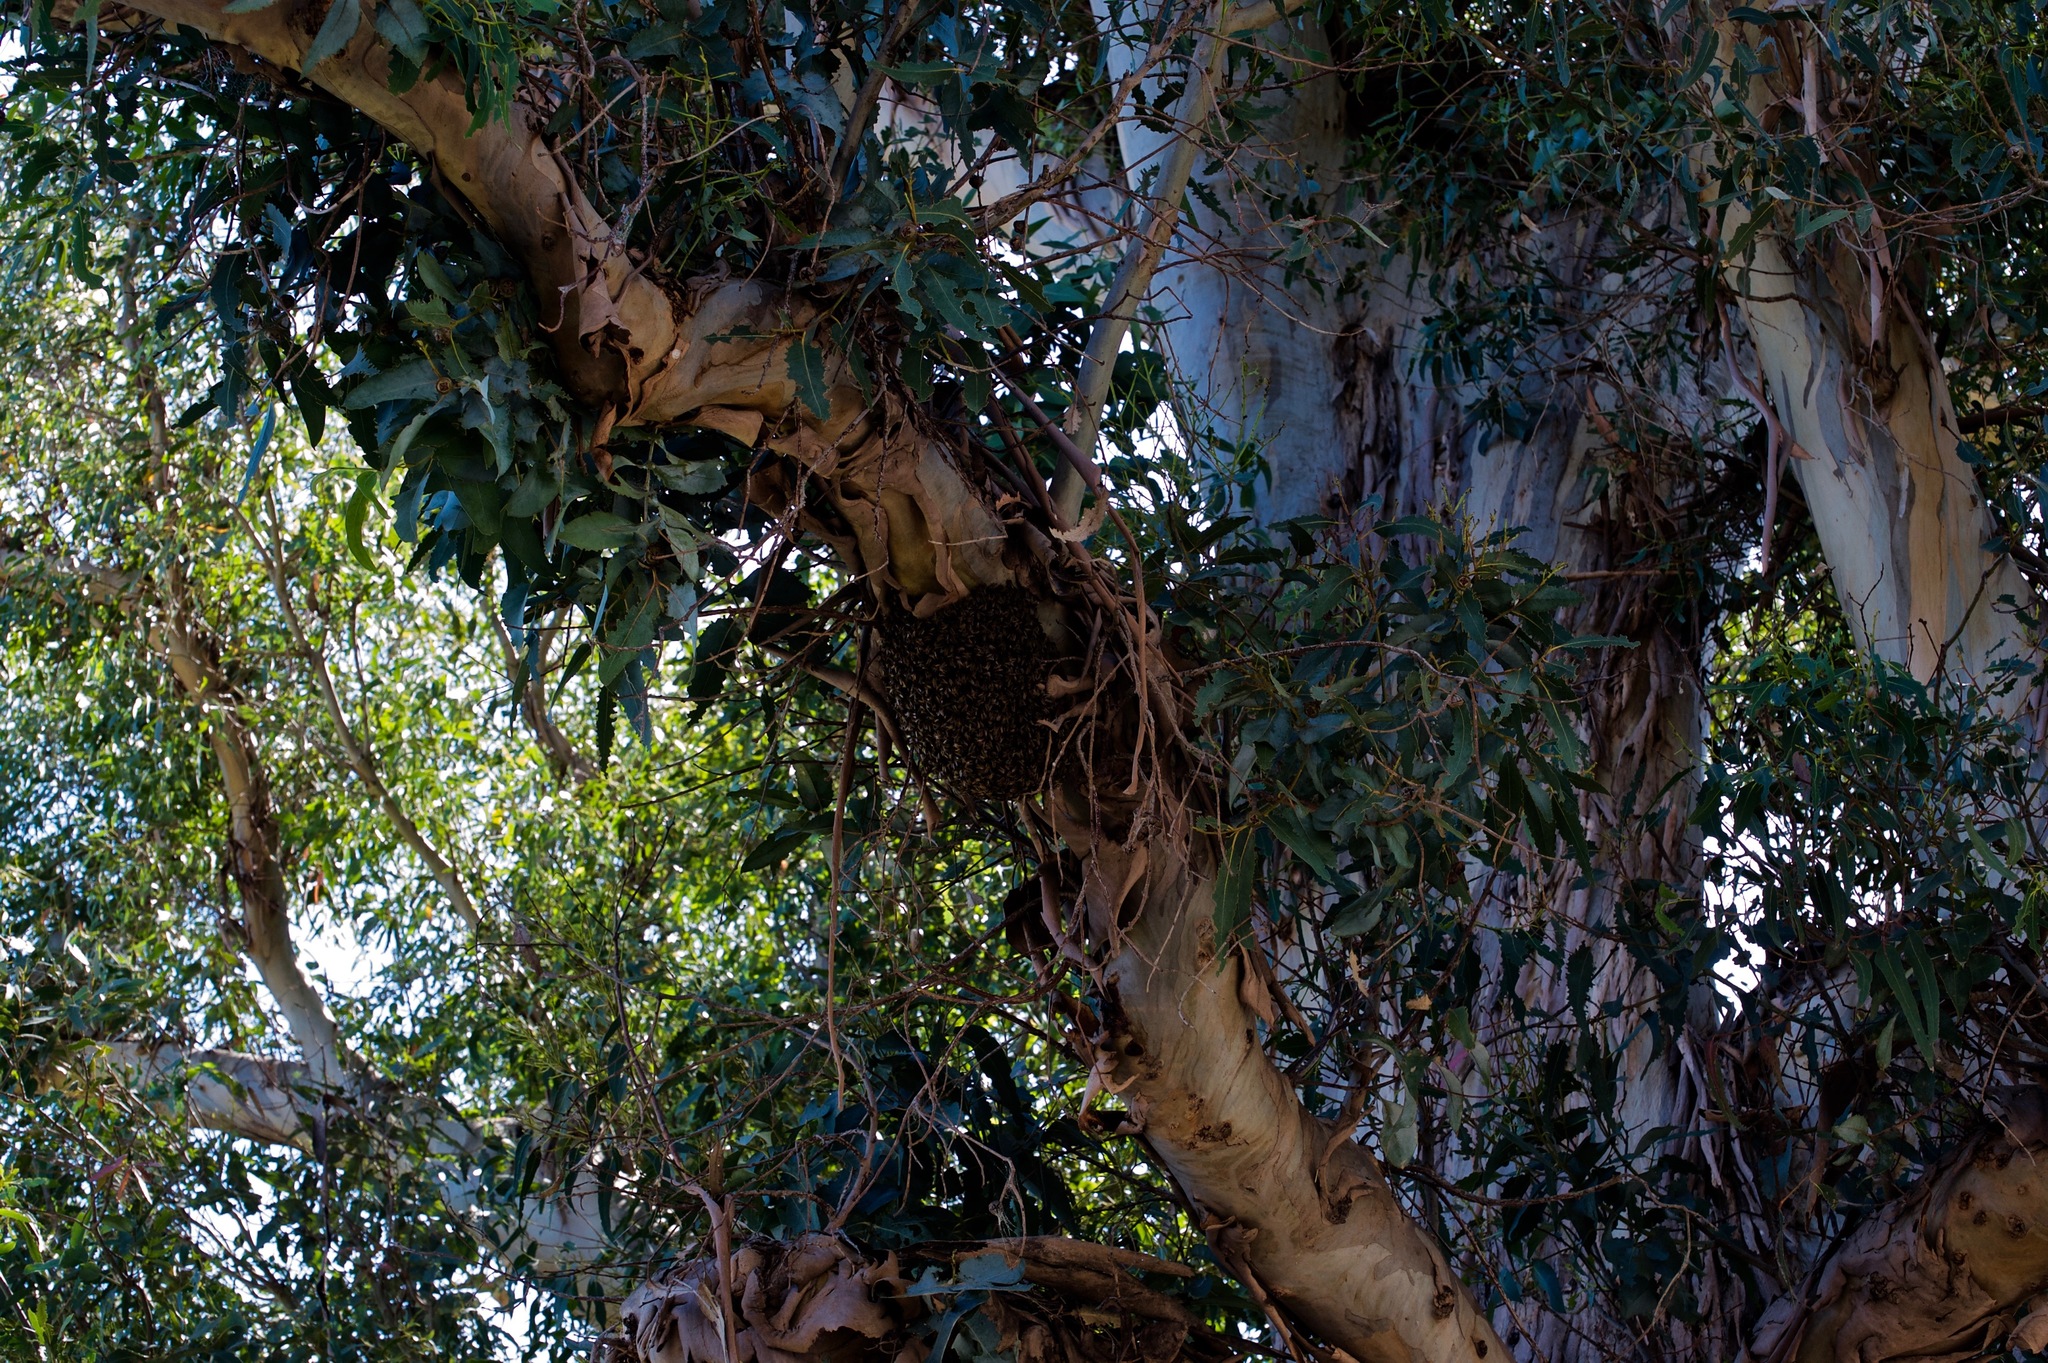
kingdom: Animalia
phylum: Arthropoda
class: Insecta
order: Hymenoptera
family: Apidae
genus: Apis
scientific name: Apis mellifera
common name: Honey bee
